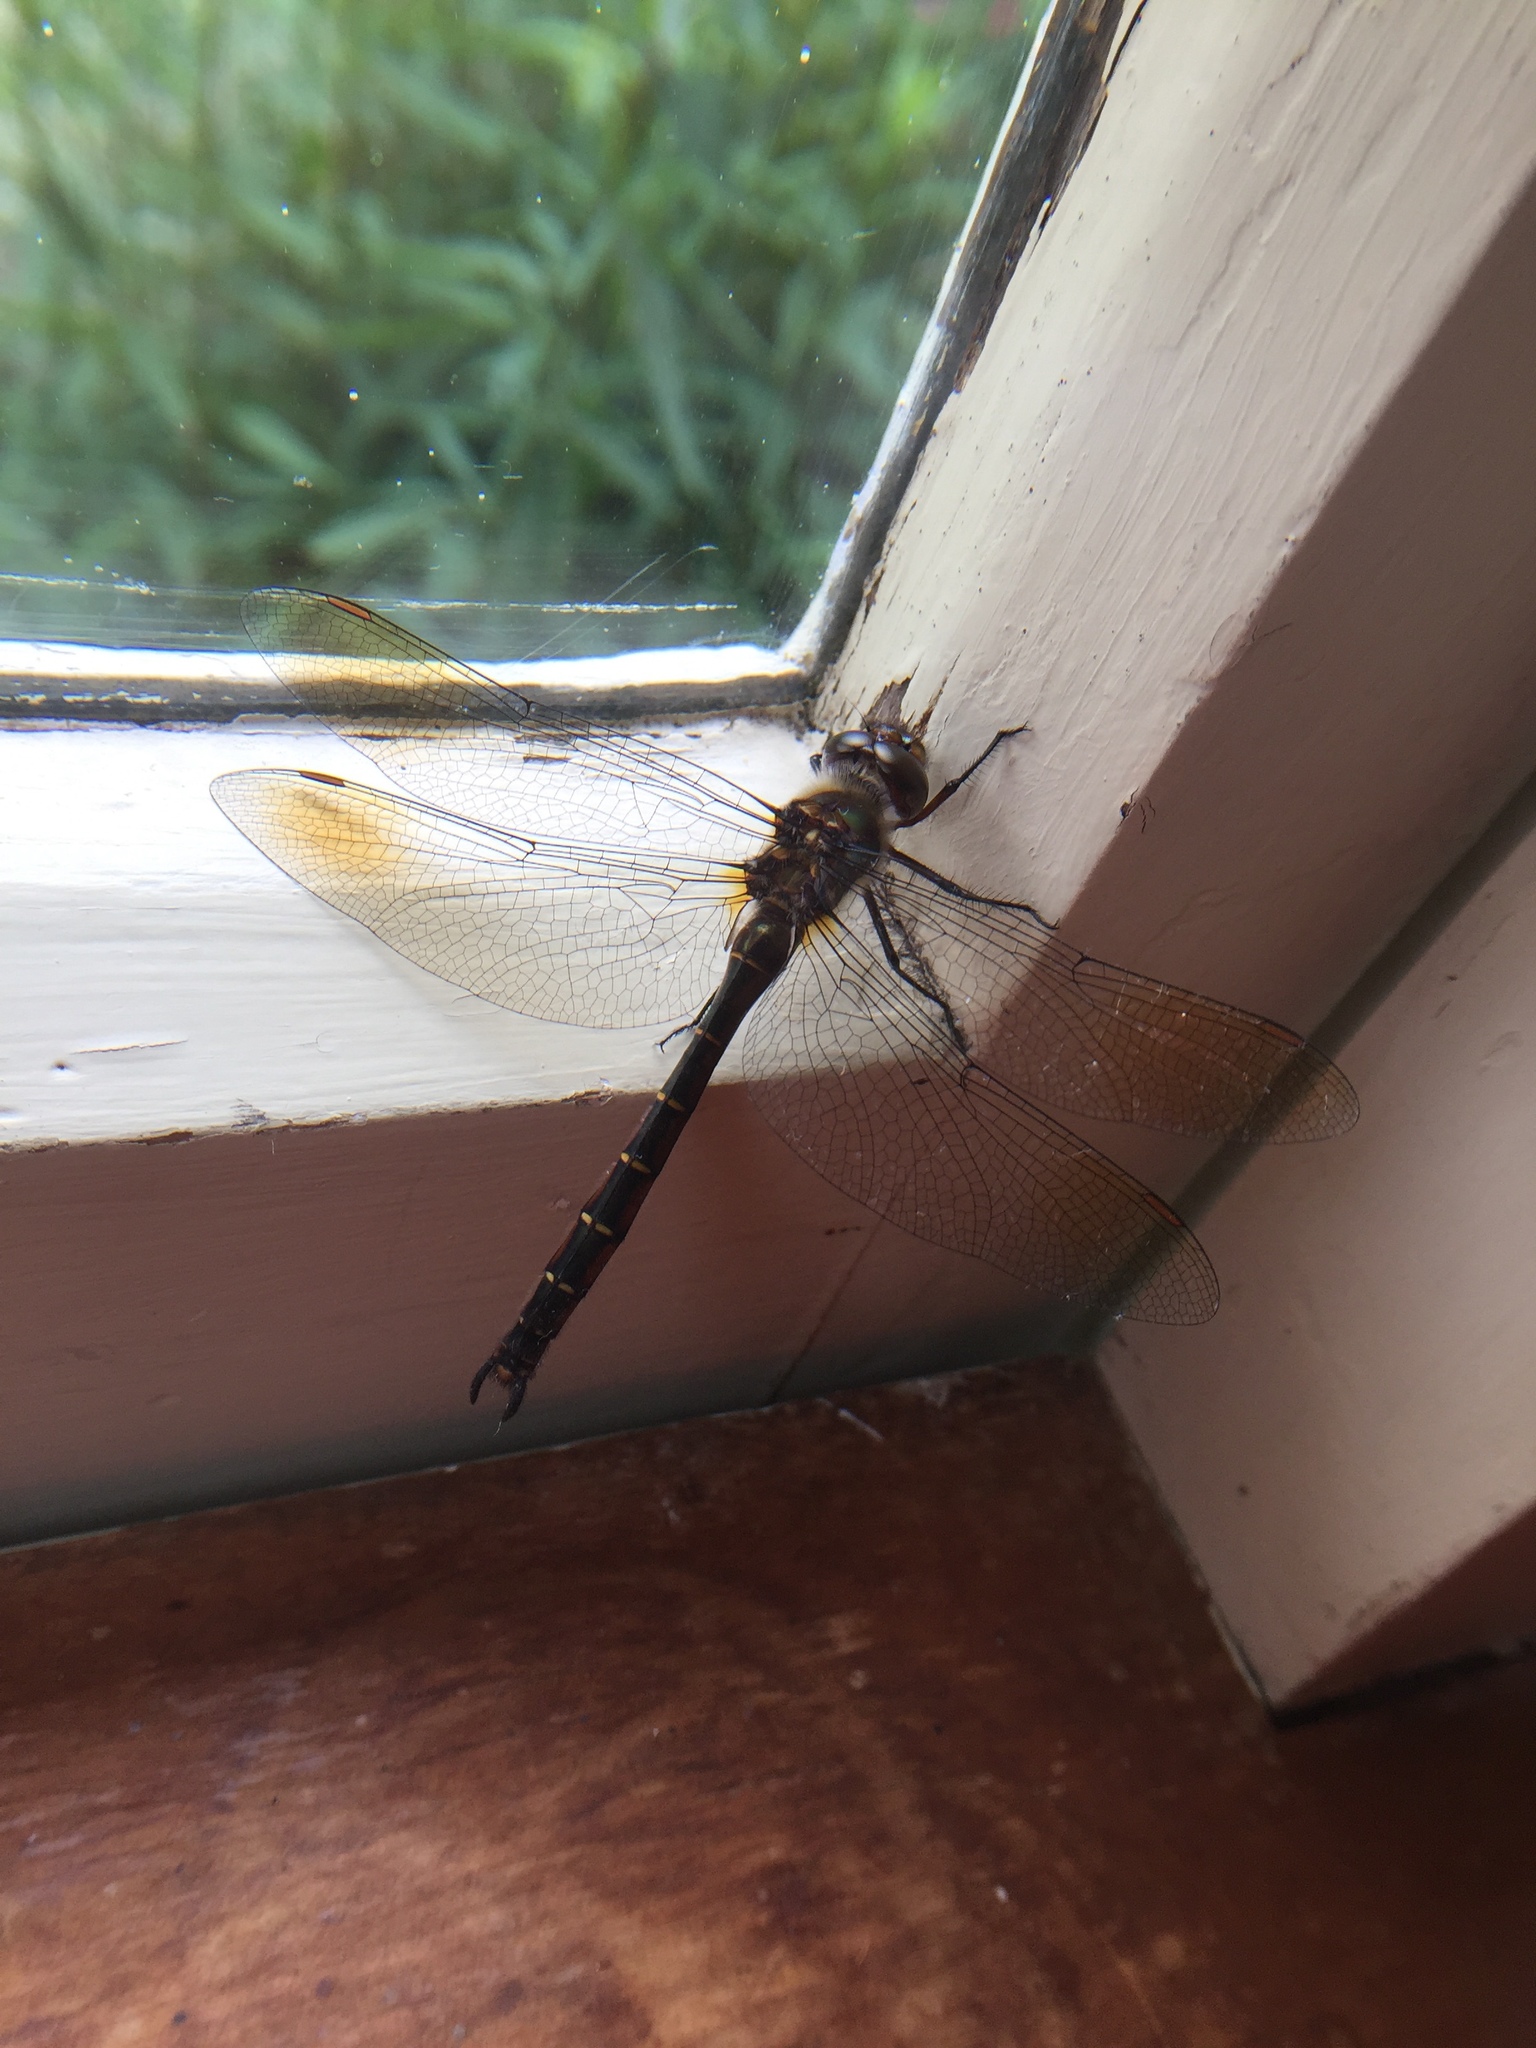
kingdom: Animalia
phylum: Arthropoda
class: Insecta
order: Odonata
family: Corduliidae
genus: Procordulia
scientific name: Procordulia smithii
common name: Ranger dragonfly
